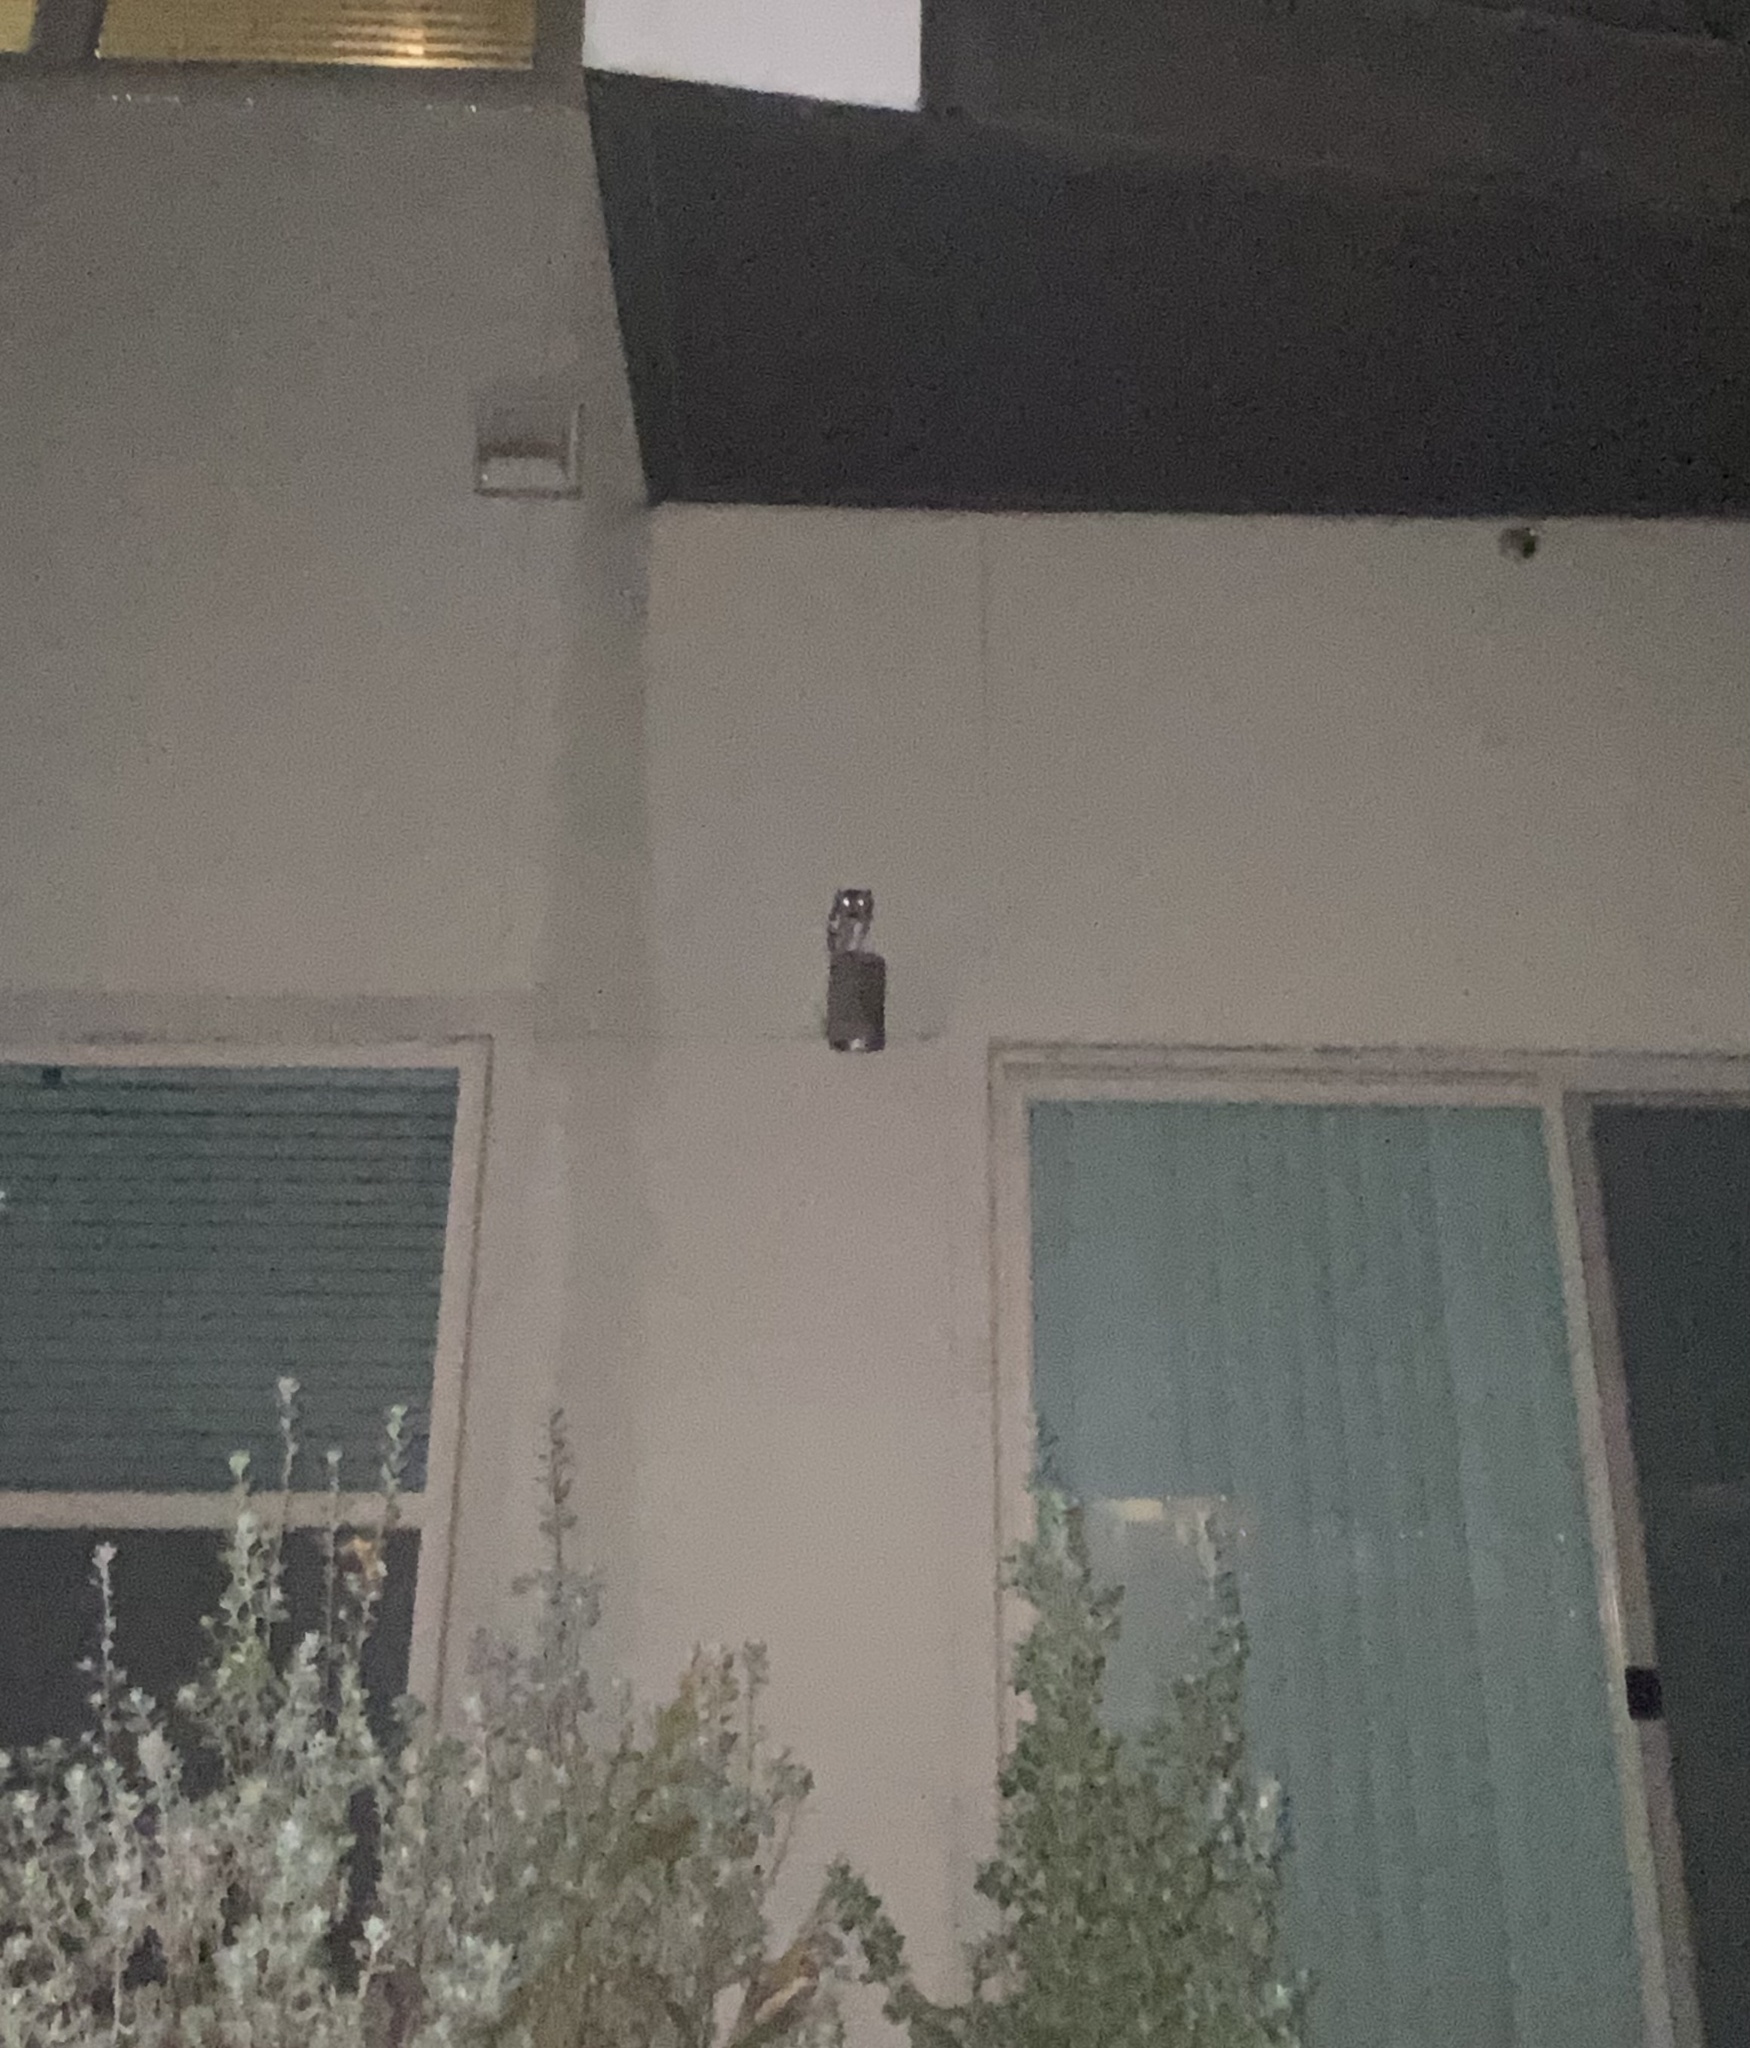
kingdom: Animalia
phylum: Chordata
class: Aves
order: Strigiformes
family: Strigidae
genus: Megascops
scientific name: Megascops asio
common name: Eastern screech-owl
